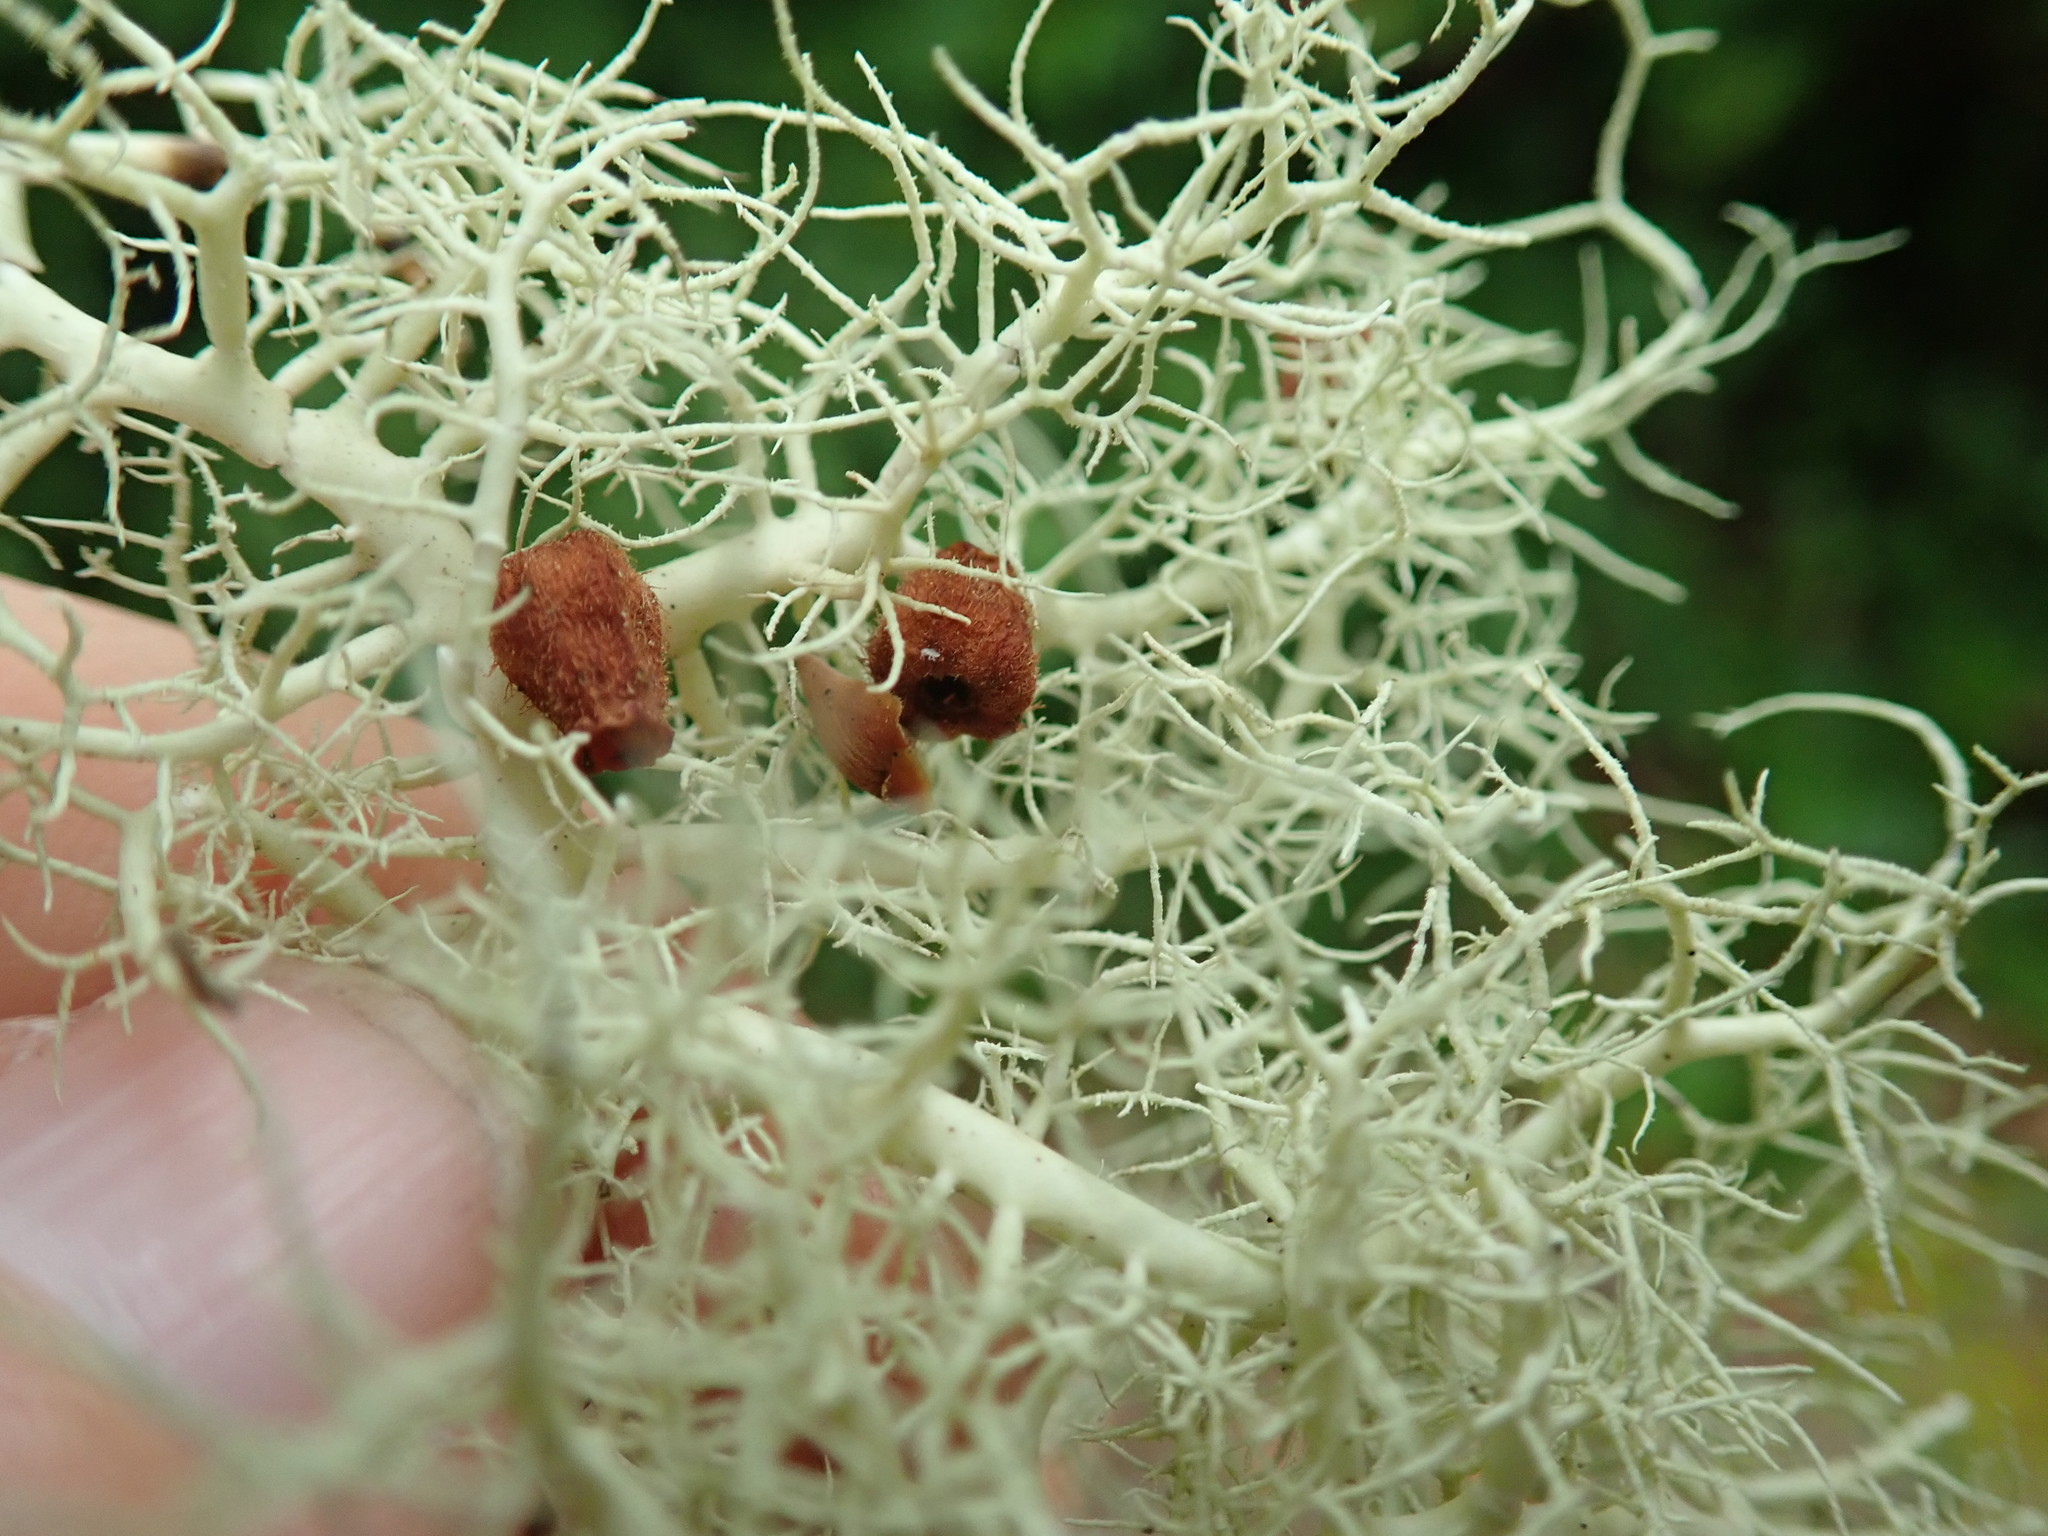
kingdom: Fungi
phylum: Ascomycota
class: Lecanoromycetes
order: Lecanorales
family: Parmeliaceae
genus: Usnea
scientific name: Usnea cornuta
